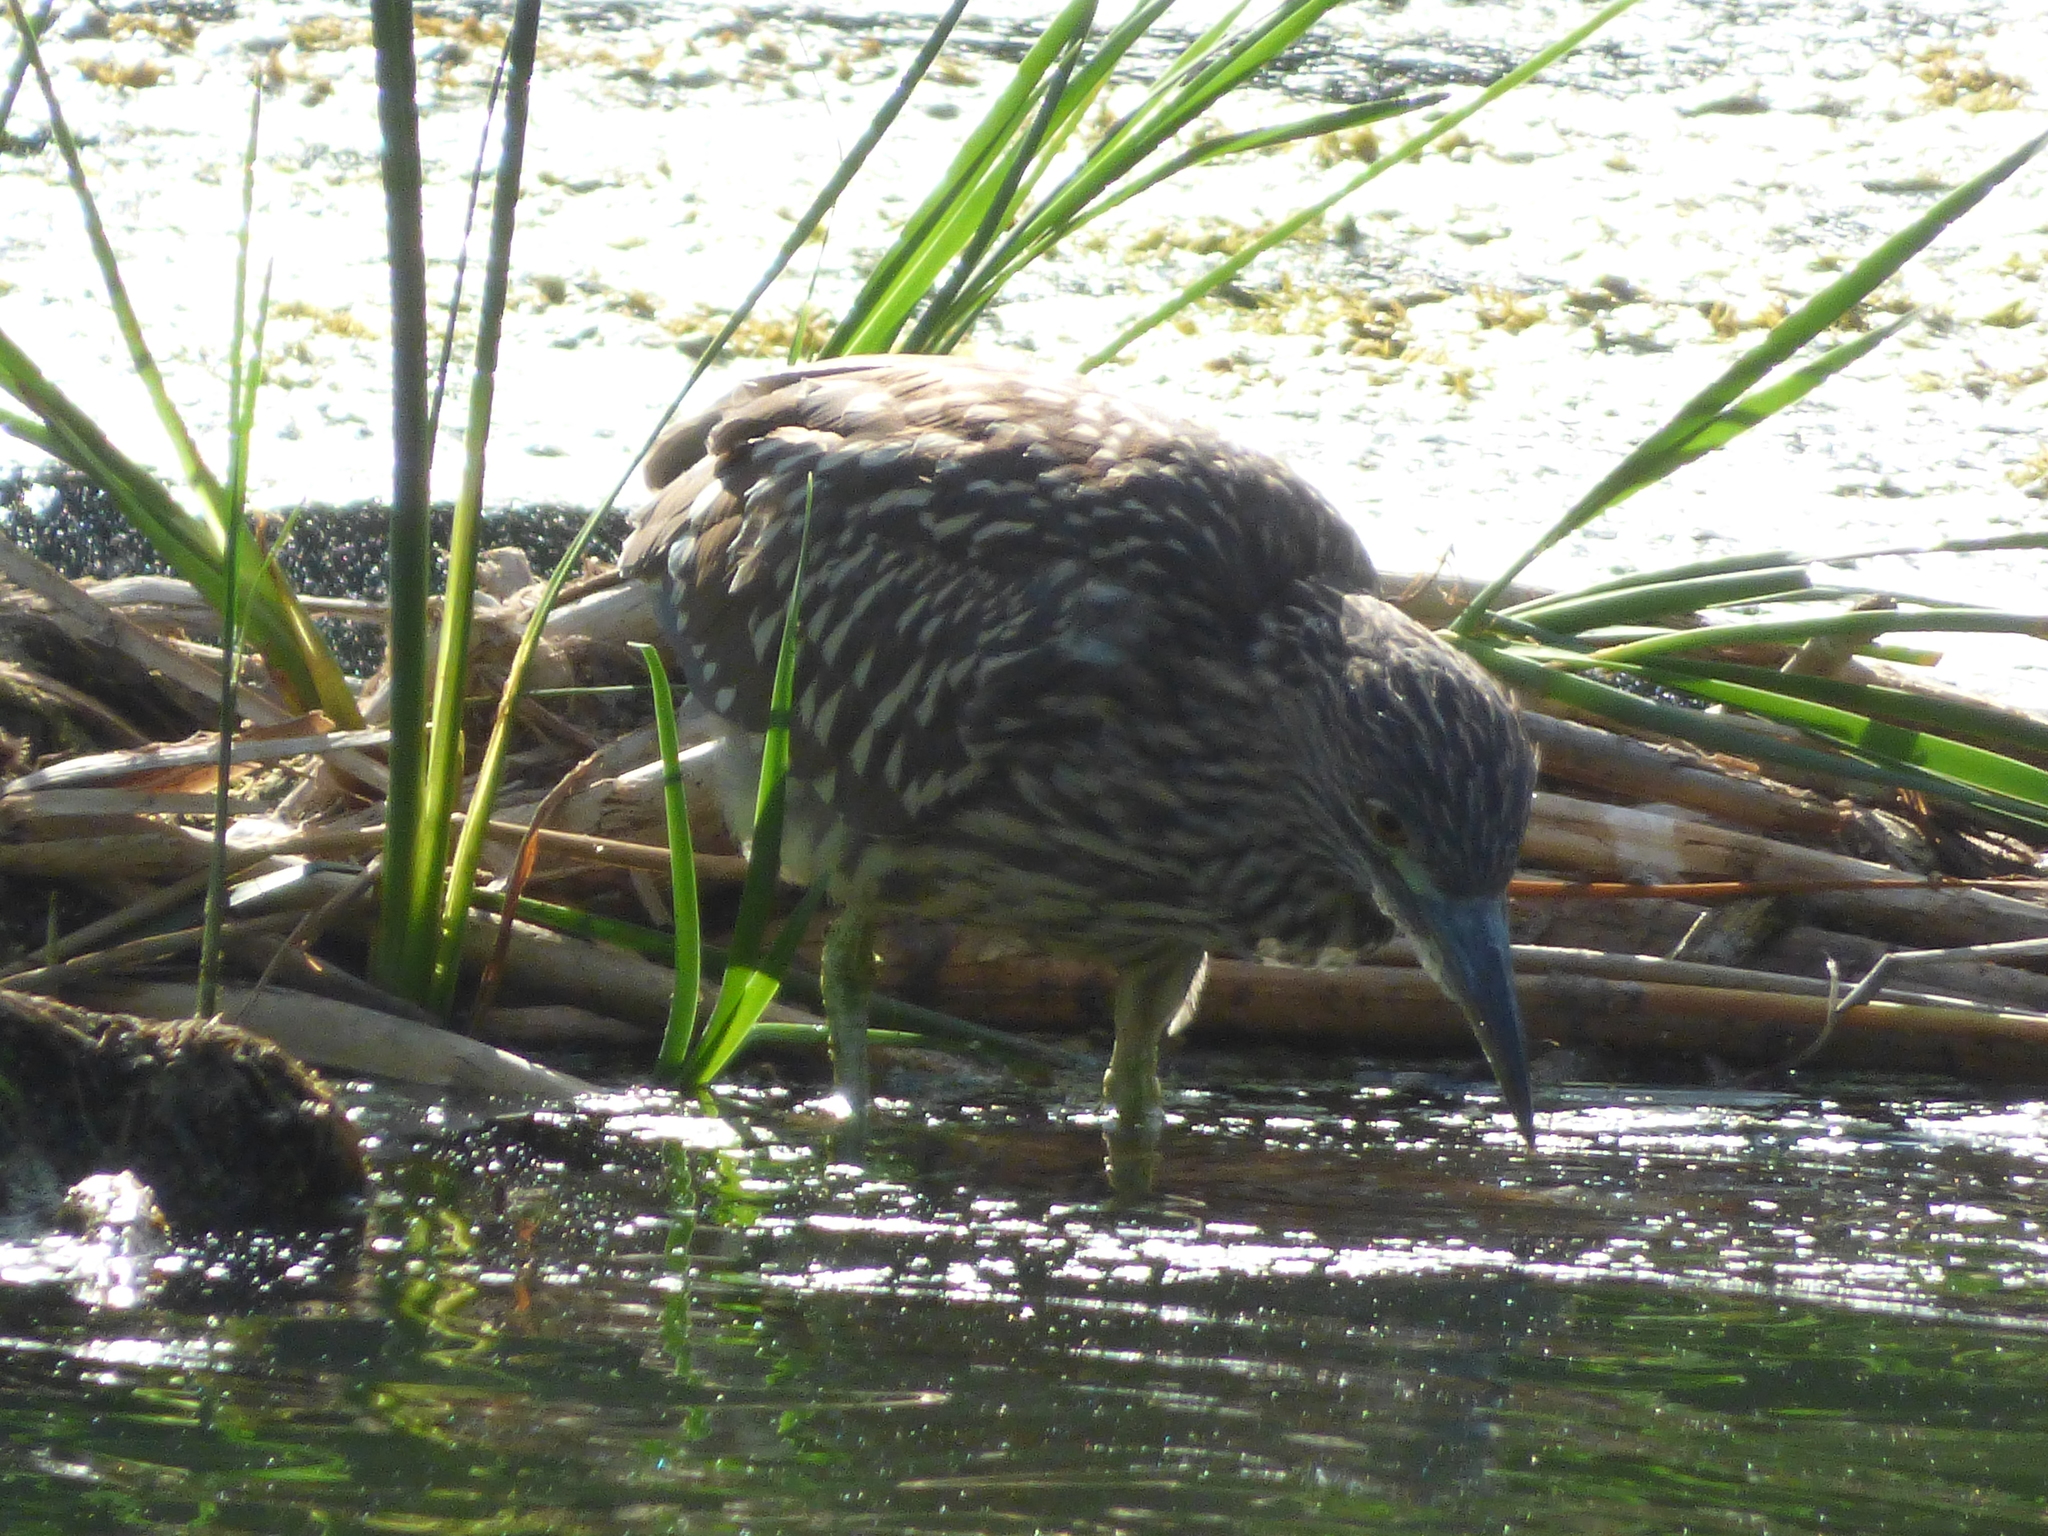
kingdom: Animalia
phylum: Chordata
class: Aves
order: Pelecaniformes
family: Ardeidae
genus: Nycticorax
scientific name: Nycticorax nycticorax
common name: Black-crowned night heron
